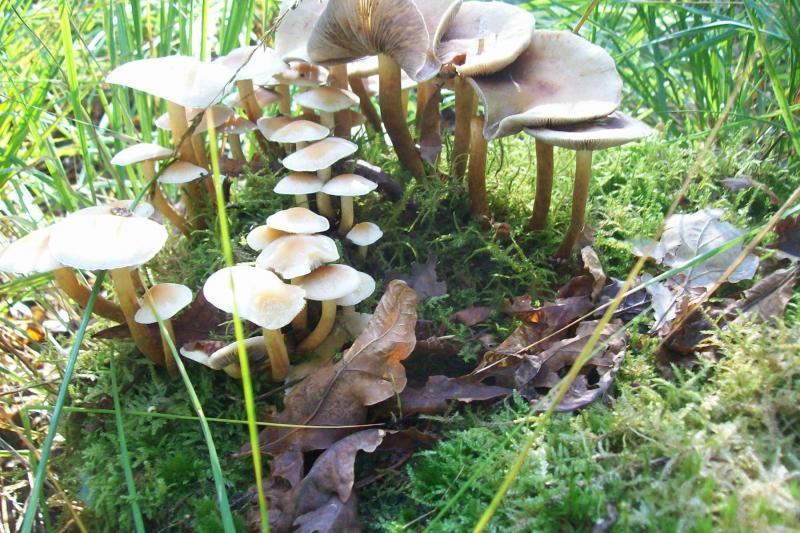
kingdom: Fungi
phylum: Basidiomycota
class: Agaricomycetes
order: Agaricales
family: Strophariaceae
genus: Hypholoma
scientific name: Hypholoma fasciculare
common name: Sulphur tuft
